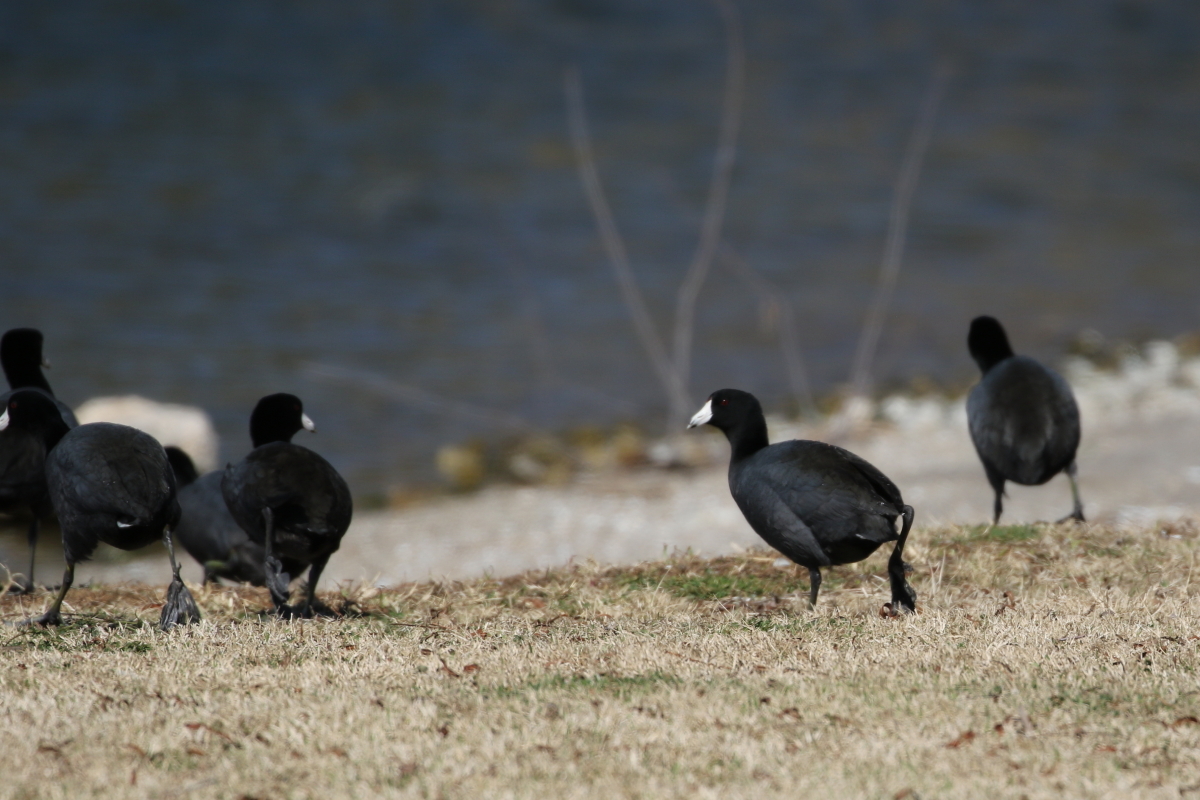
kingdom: Animalia
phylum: Chordata
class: Aves
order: Gruiformes
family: Rallidae
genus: Fulica
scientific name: Fulica americana
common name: American coot
